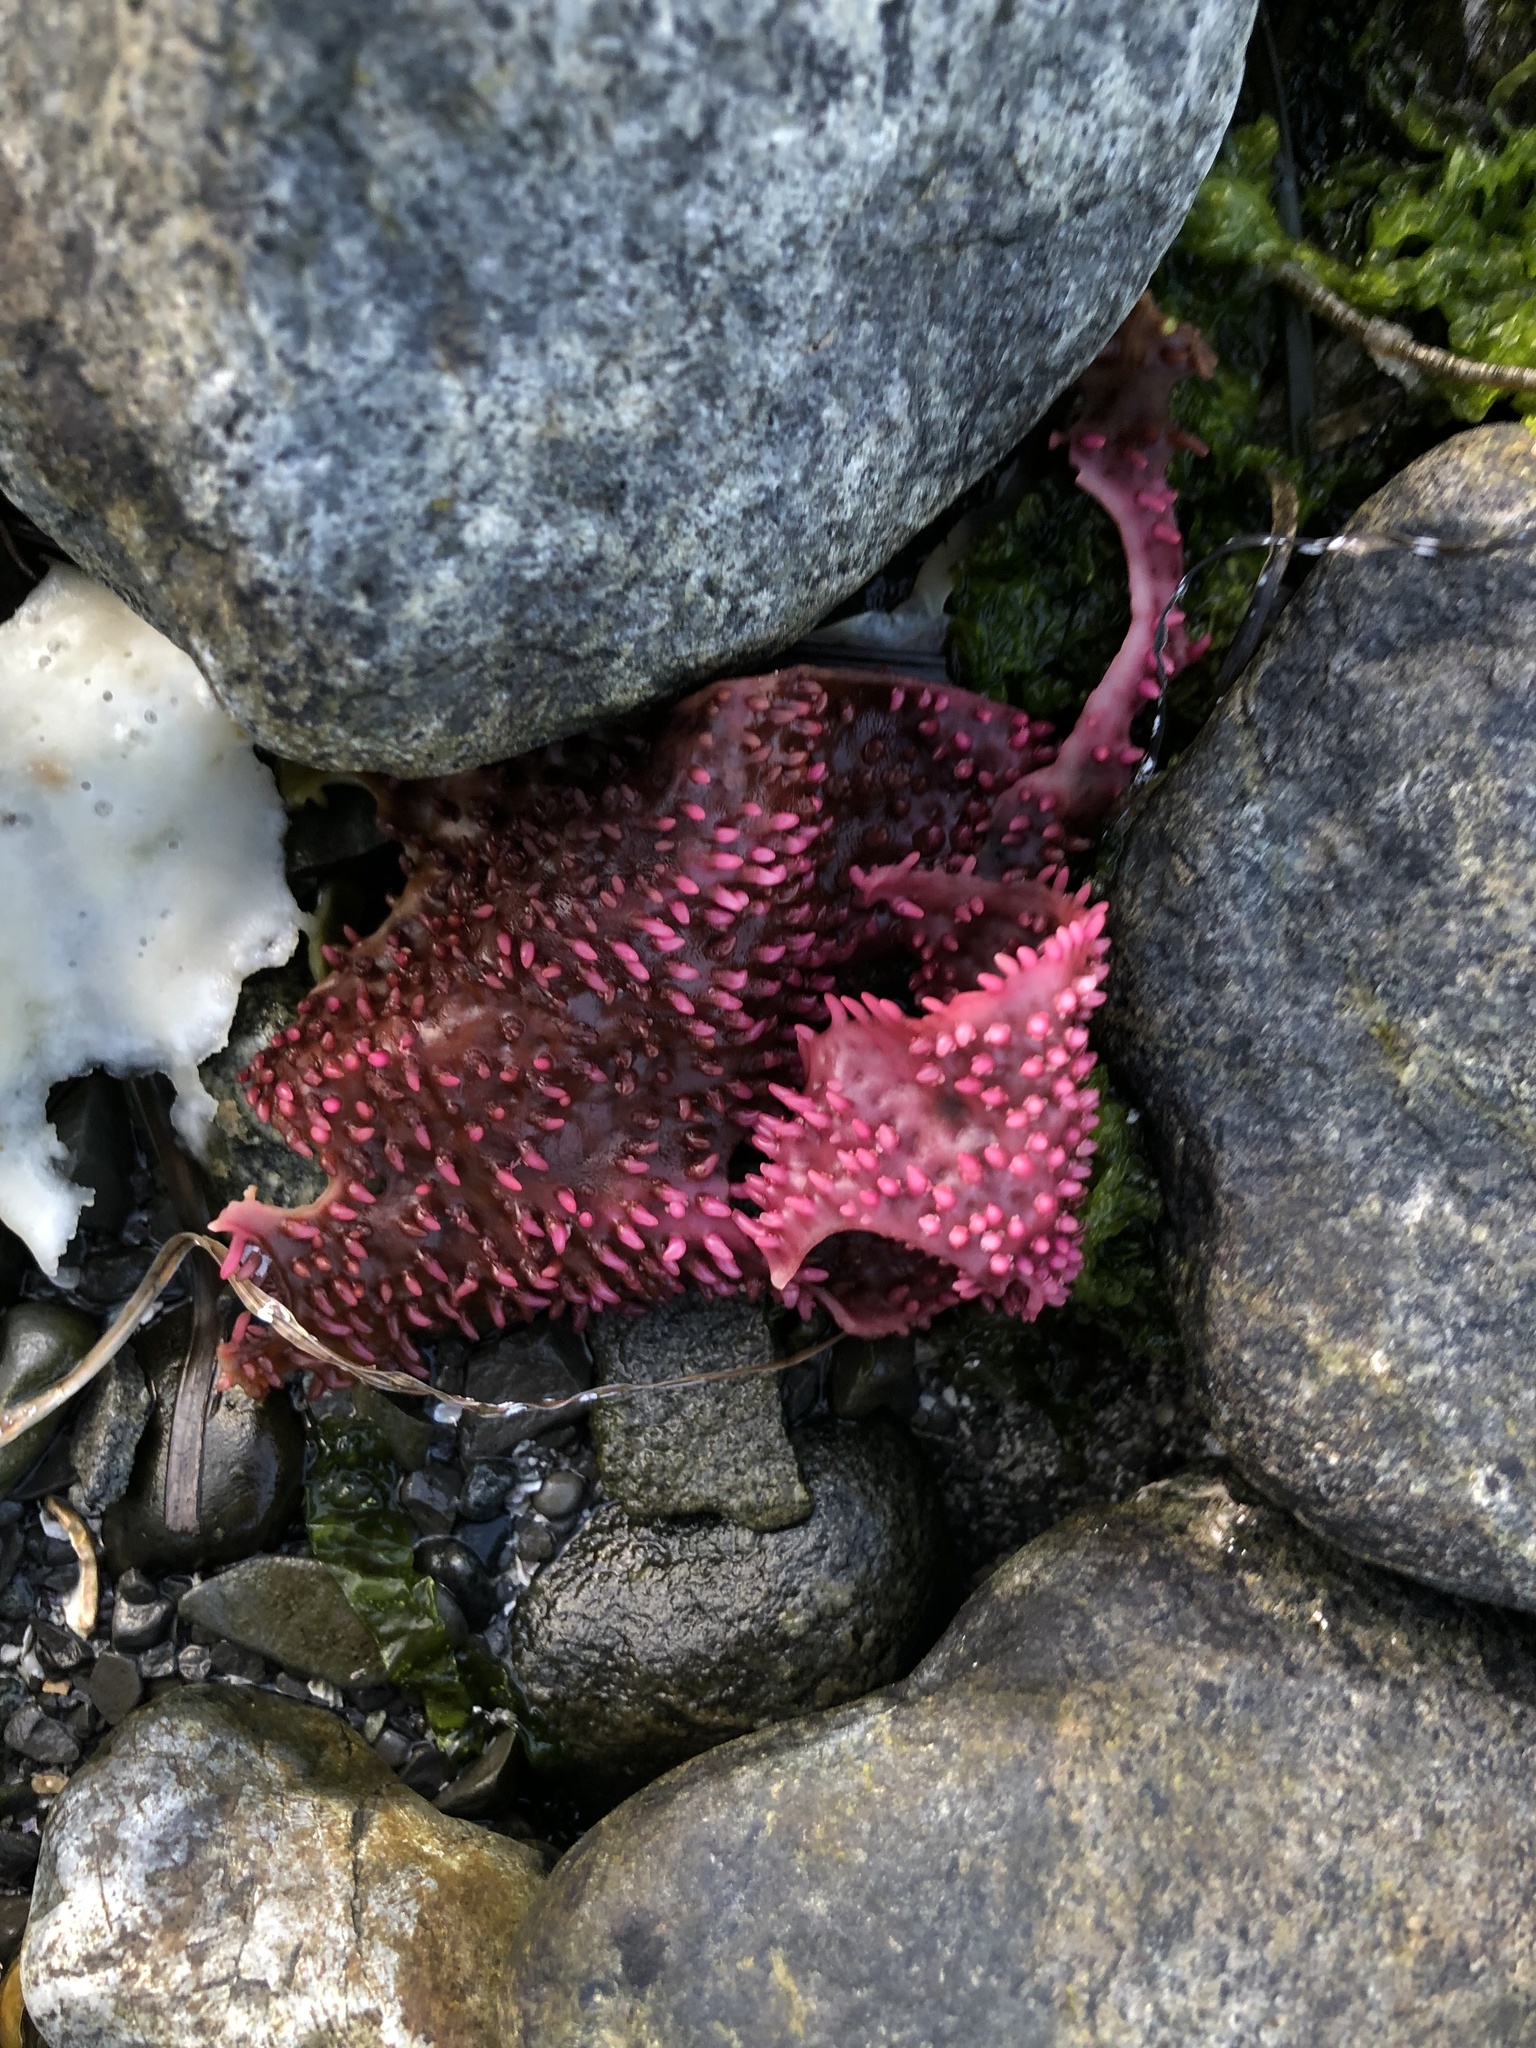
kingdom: Plantae
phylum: Rhodophyta
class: Florideophyceae
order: Gigartinales
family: Gigartinaceae
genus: Chondracanthus
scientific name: Chondracanthus exasperatus
